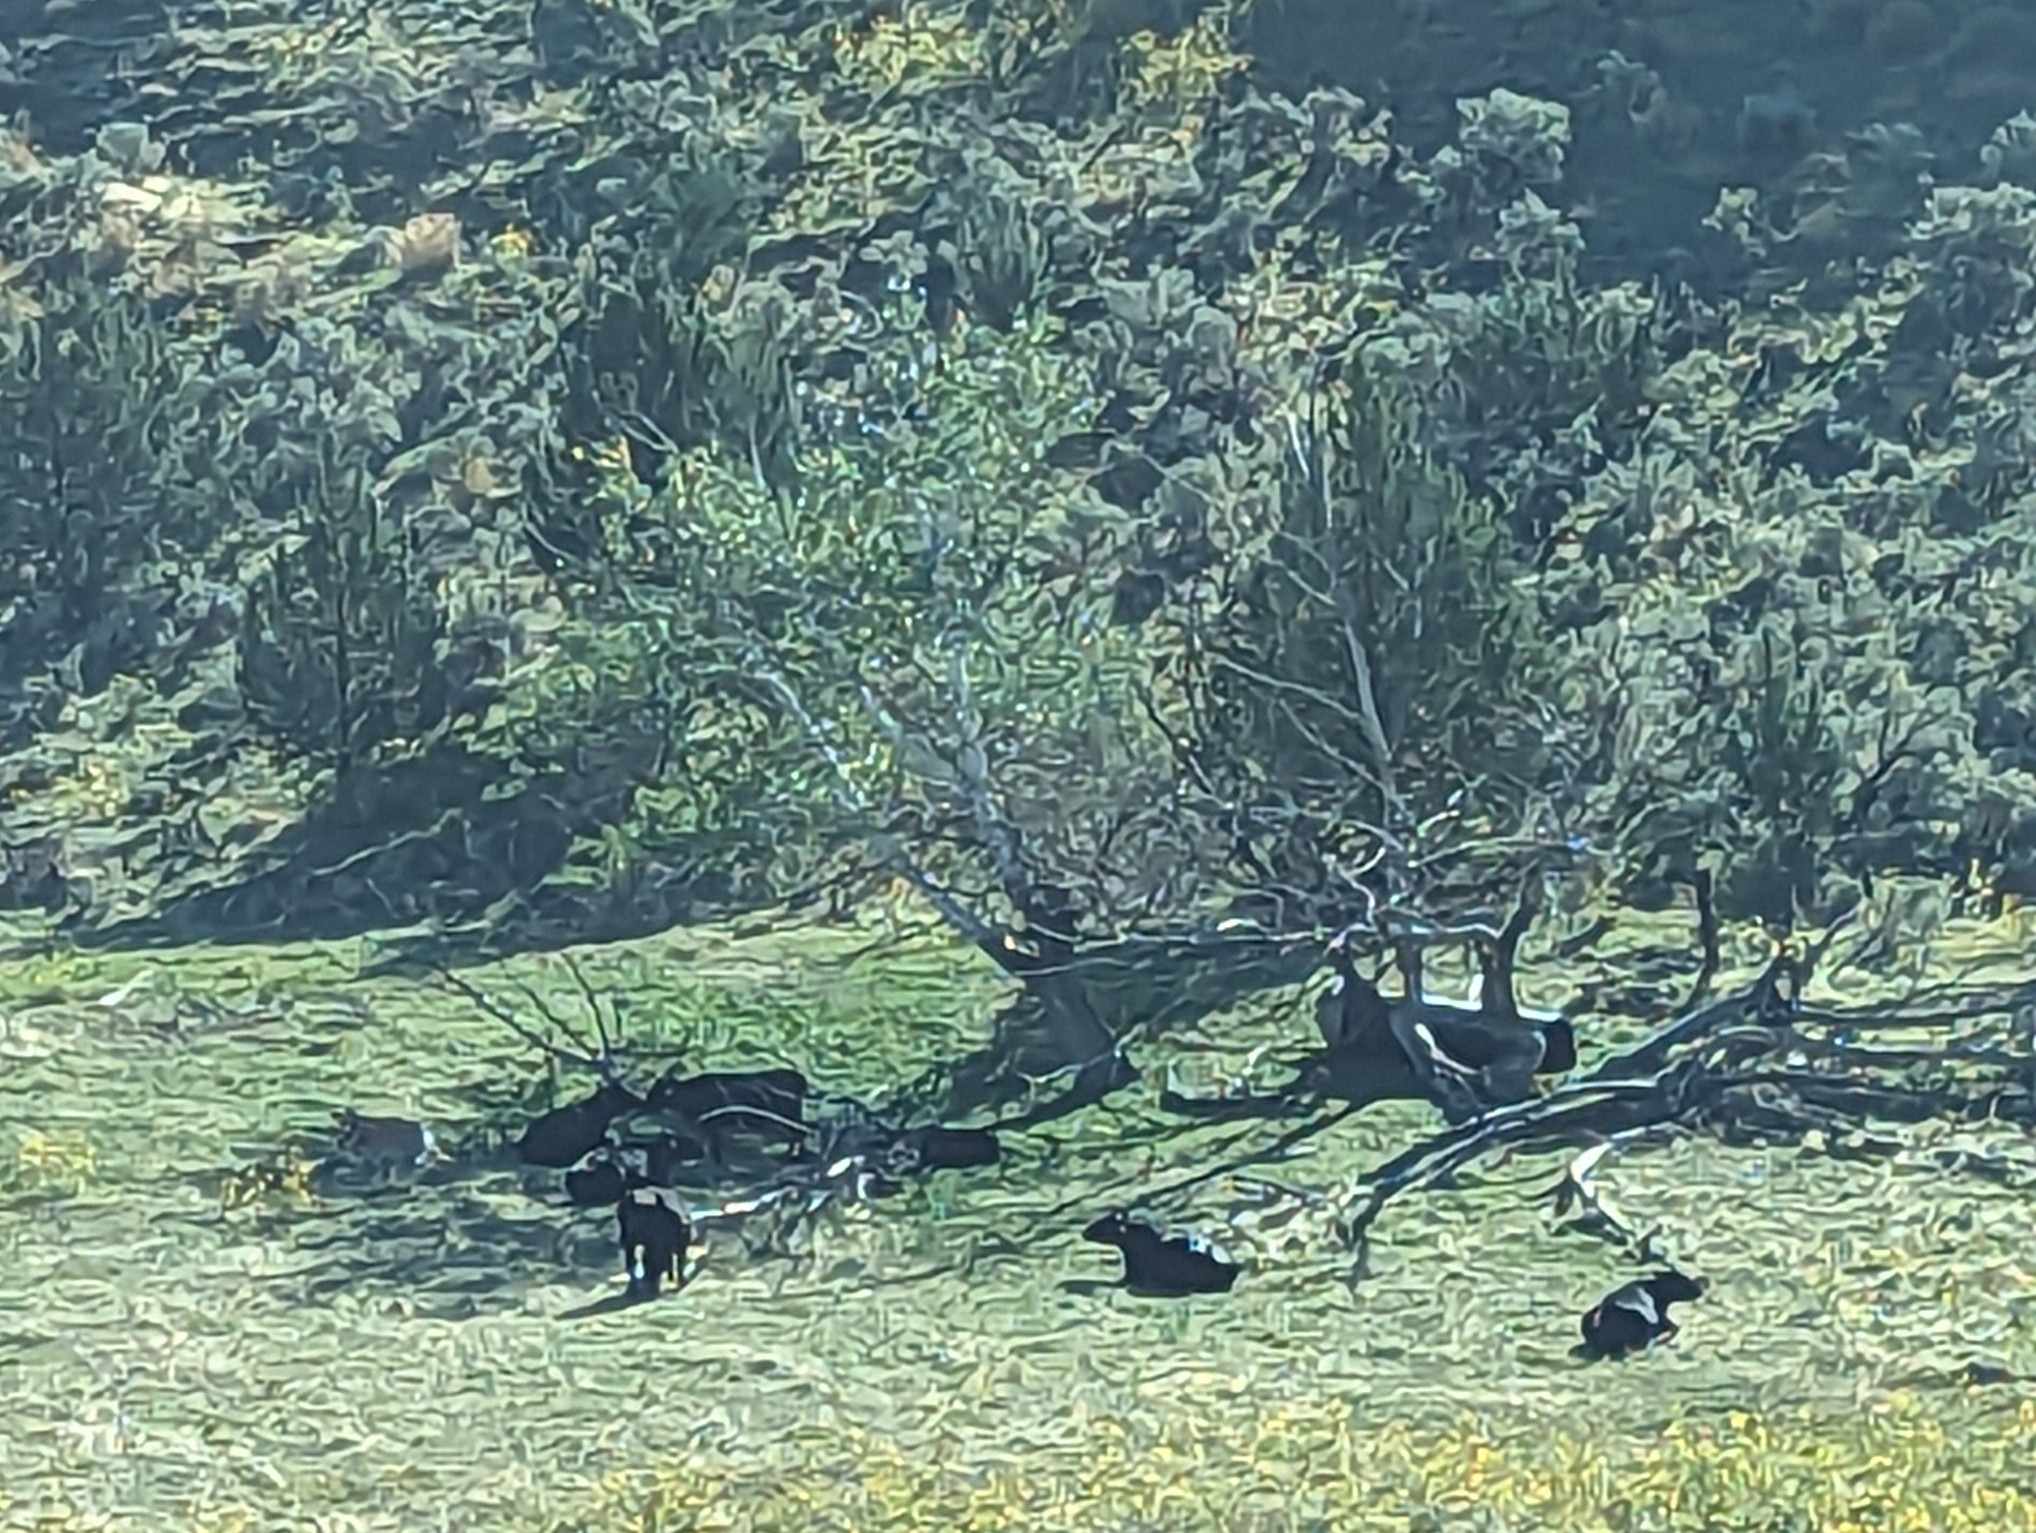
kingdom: Animalia
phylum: Chordata
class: Mammalia
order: Artiodactyla
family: Bovidae
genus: Bos
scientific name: Bos taurus
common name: Domesticated cattle
